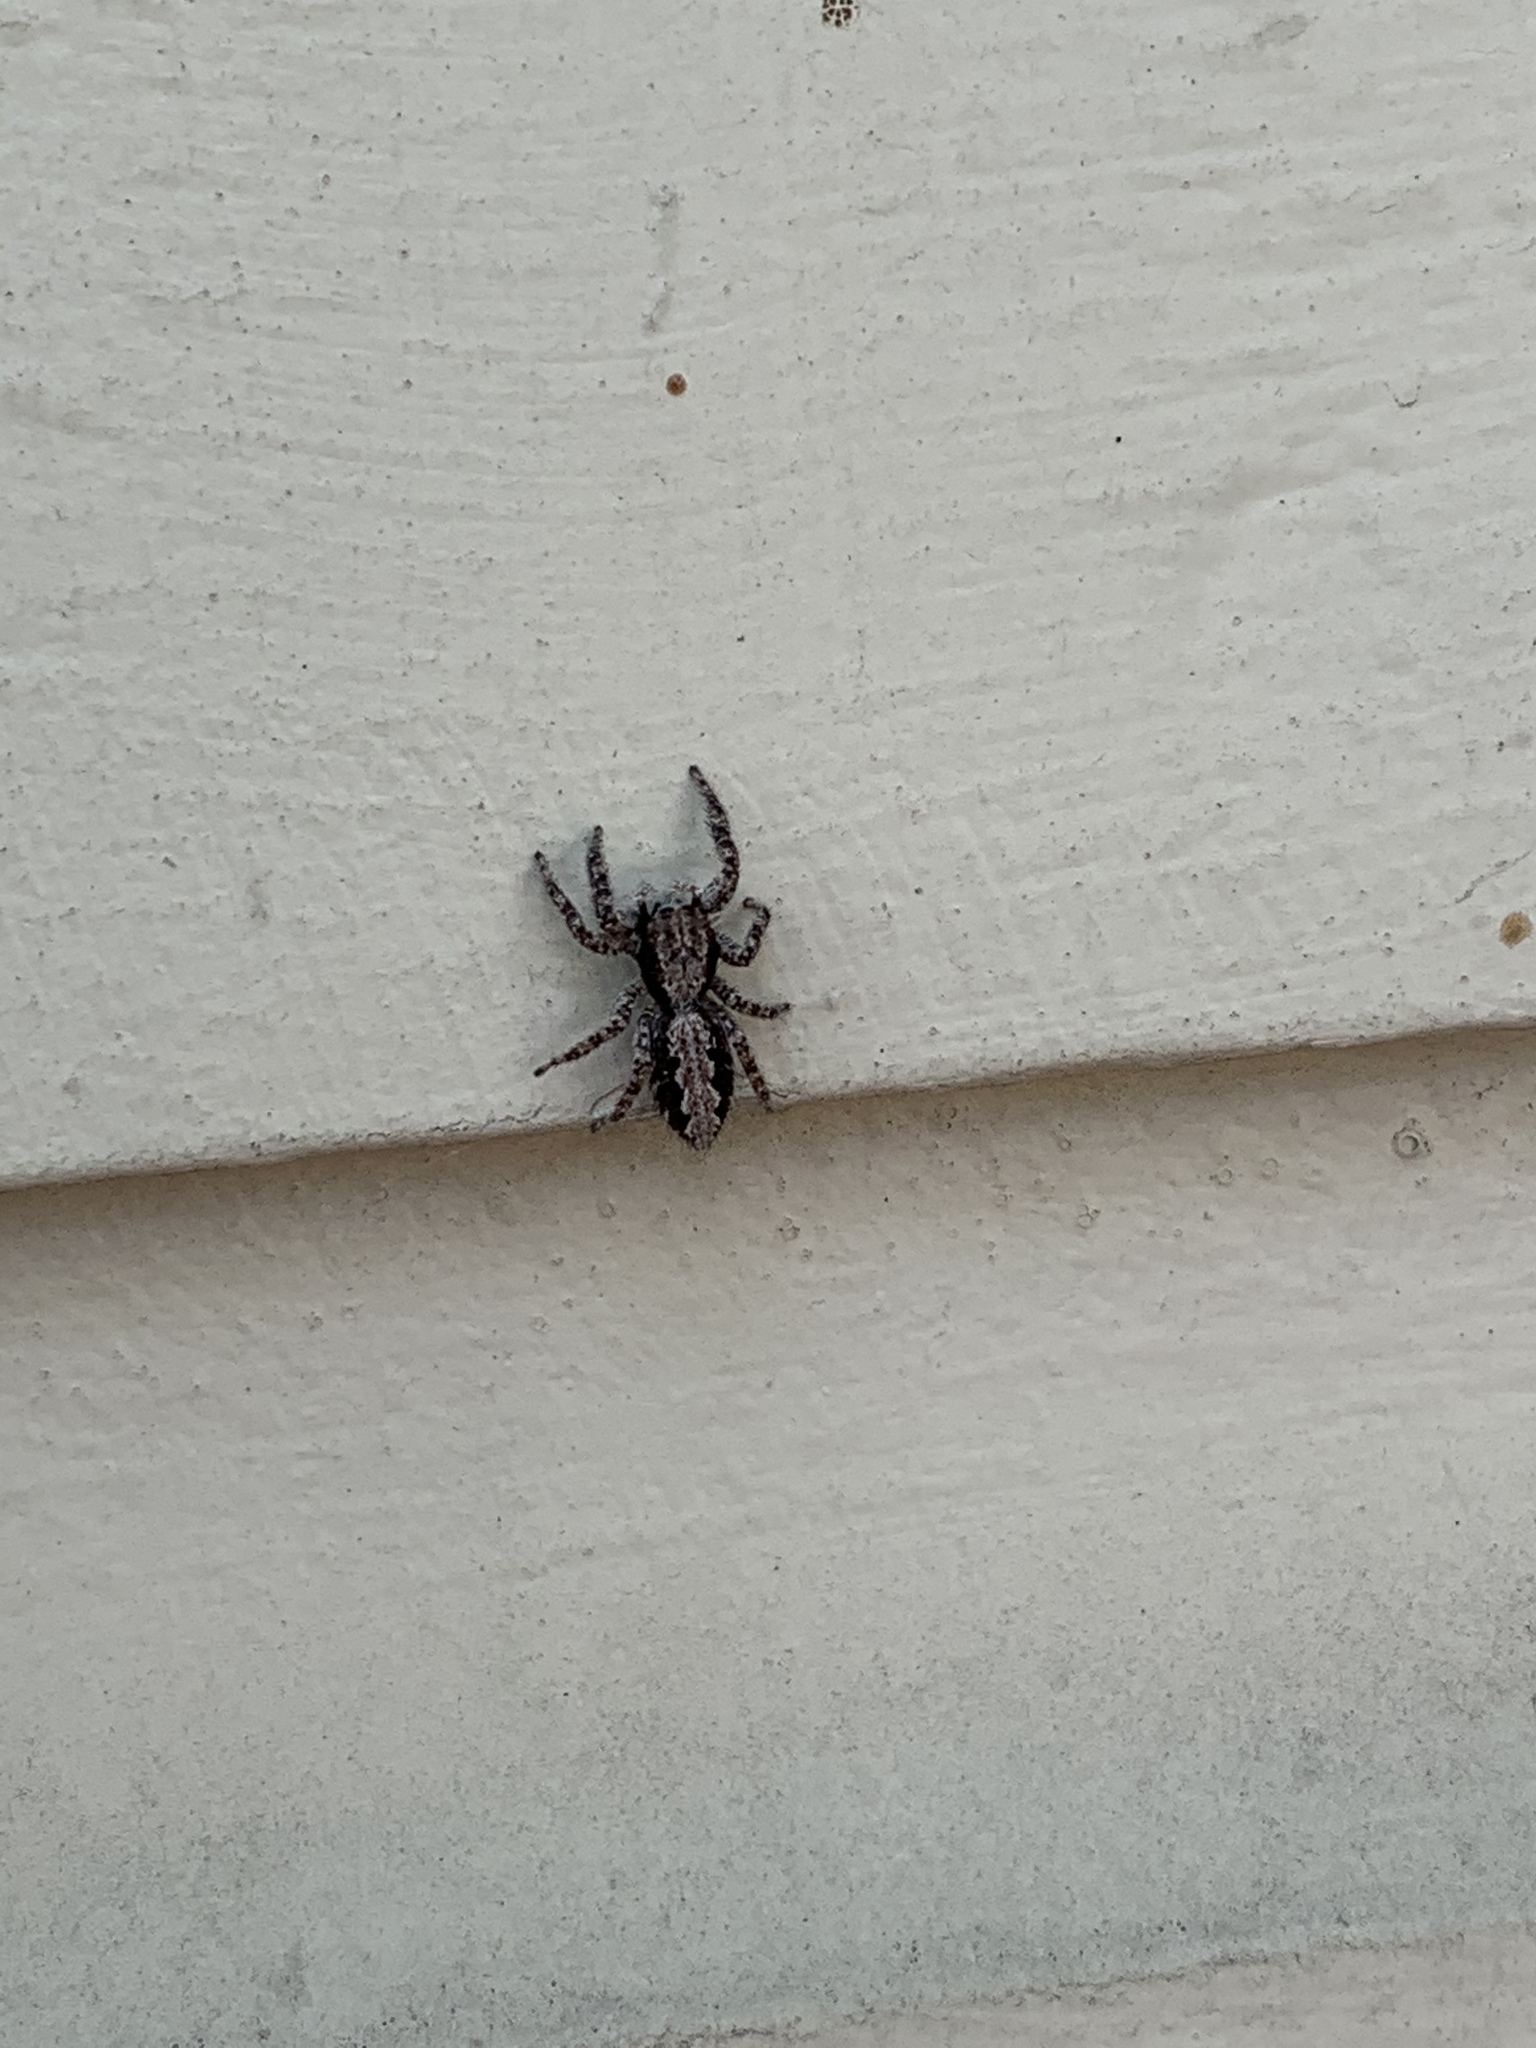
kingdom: Animalia
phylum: Arthropoda
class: Arachnida
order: Araneae
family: Salticidae
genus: Platycryptus
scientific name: Platycryptus californicus
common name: Jumping spiders
